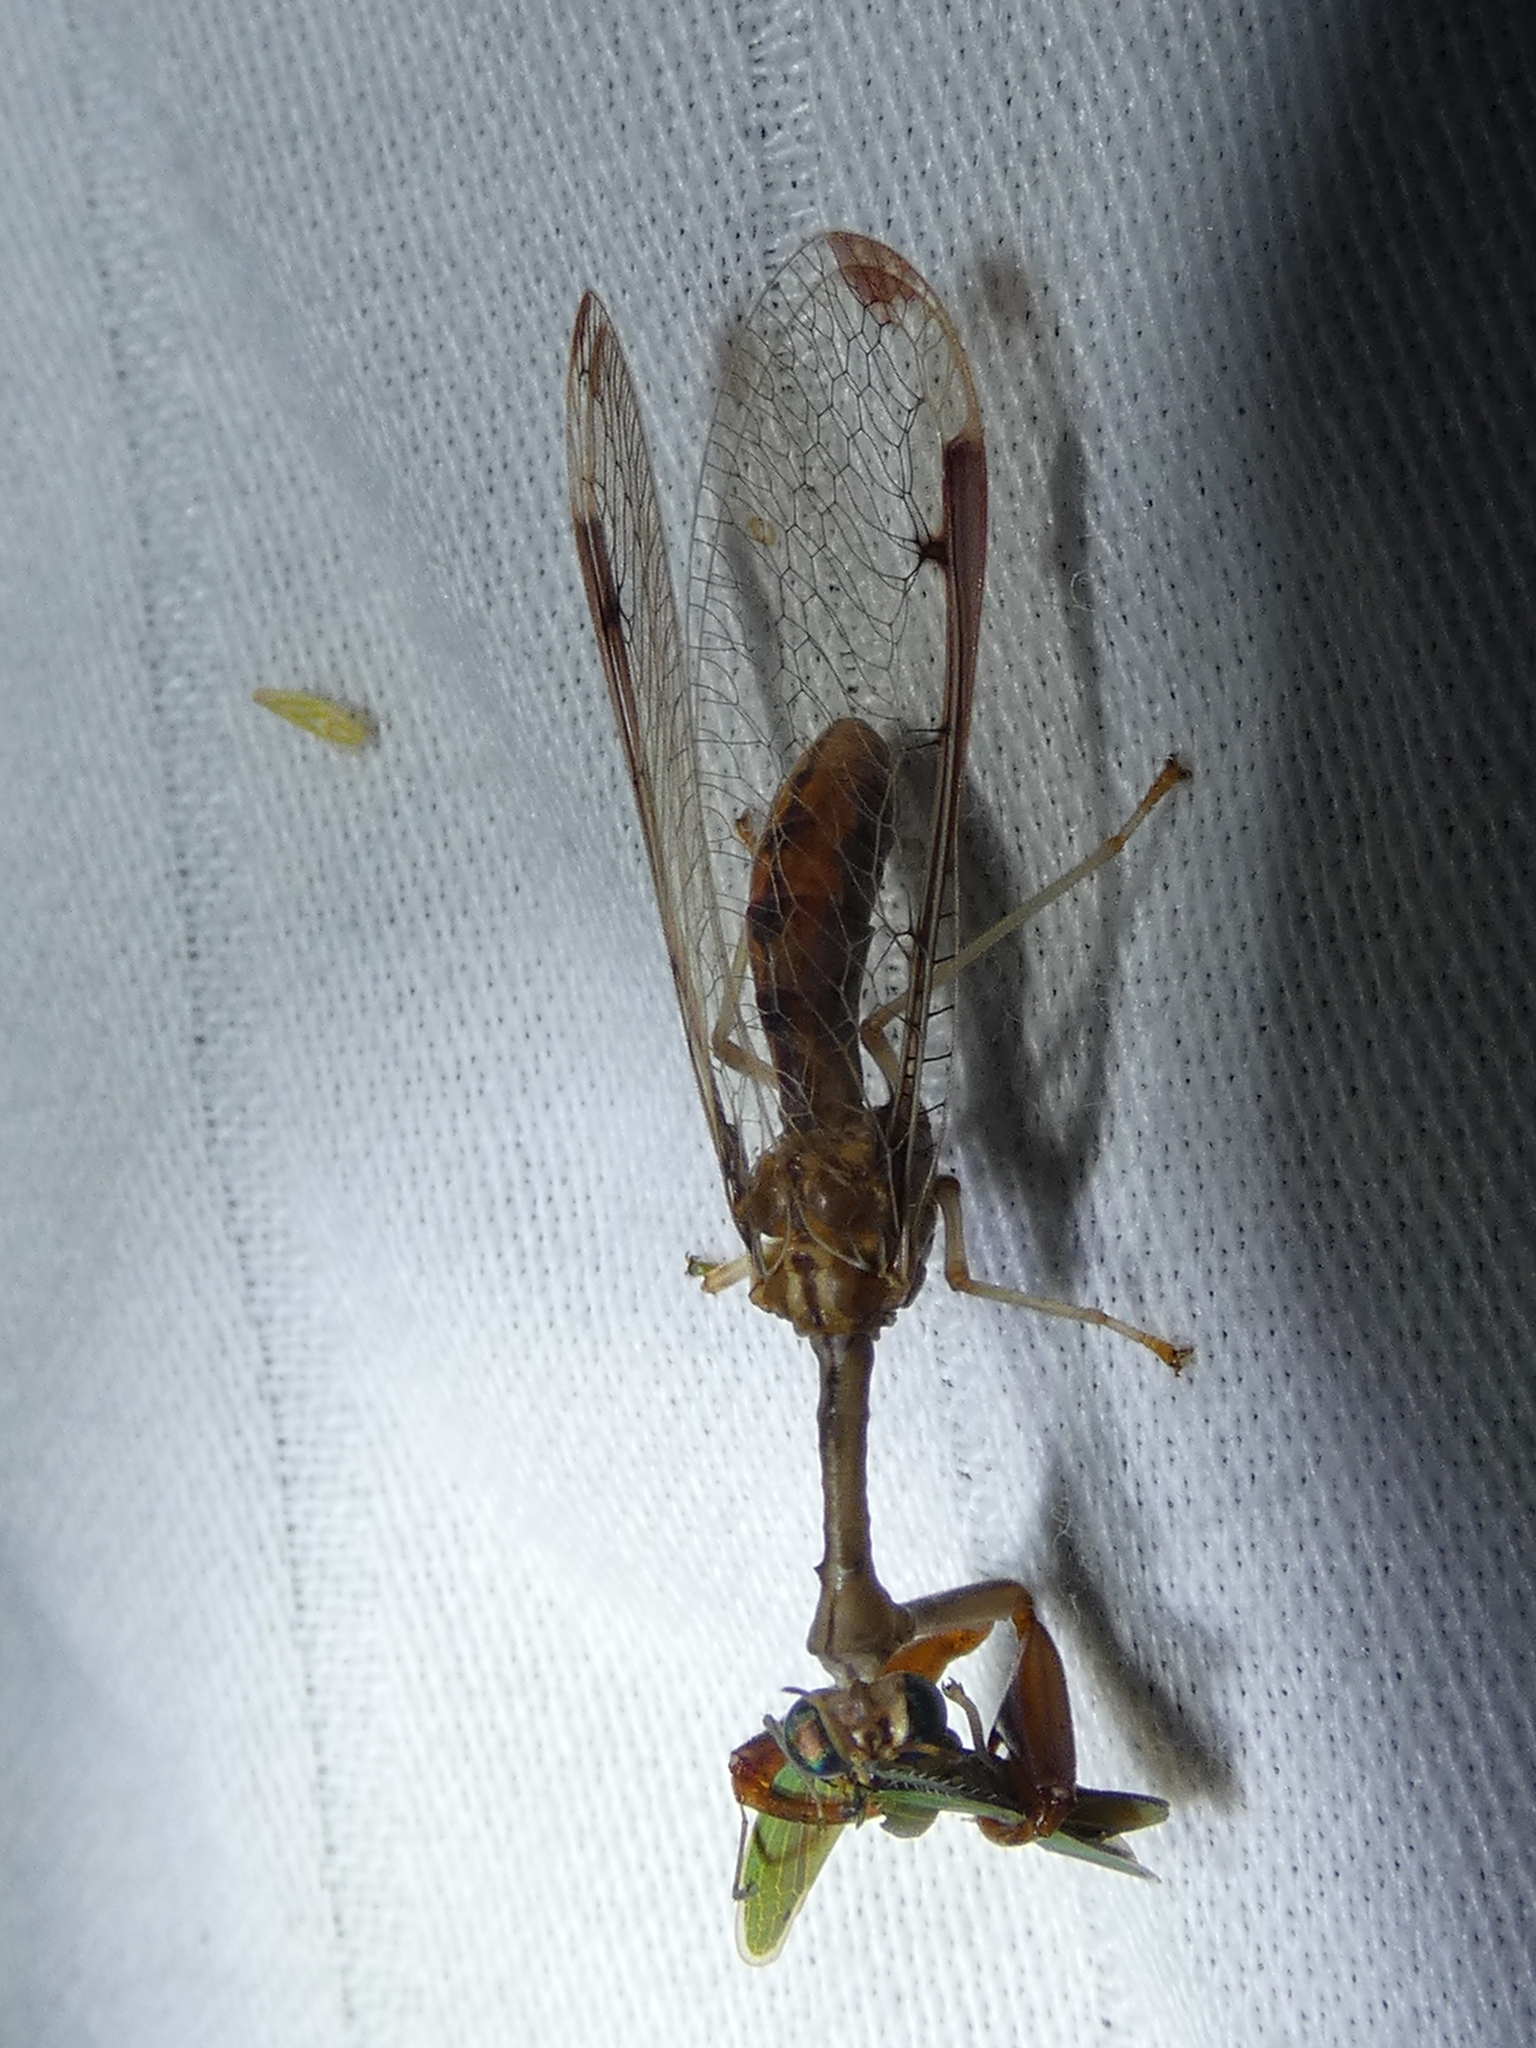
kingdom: Animalia
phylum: Arthropoda
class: Insecta
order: Neuroptera
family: Mantispidae
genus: Dicromantispa
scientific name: Dicromantispa interrupta
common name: Four-spotted mantidfly
